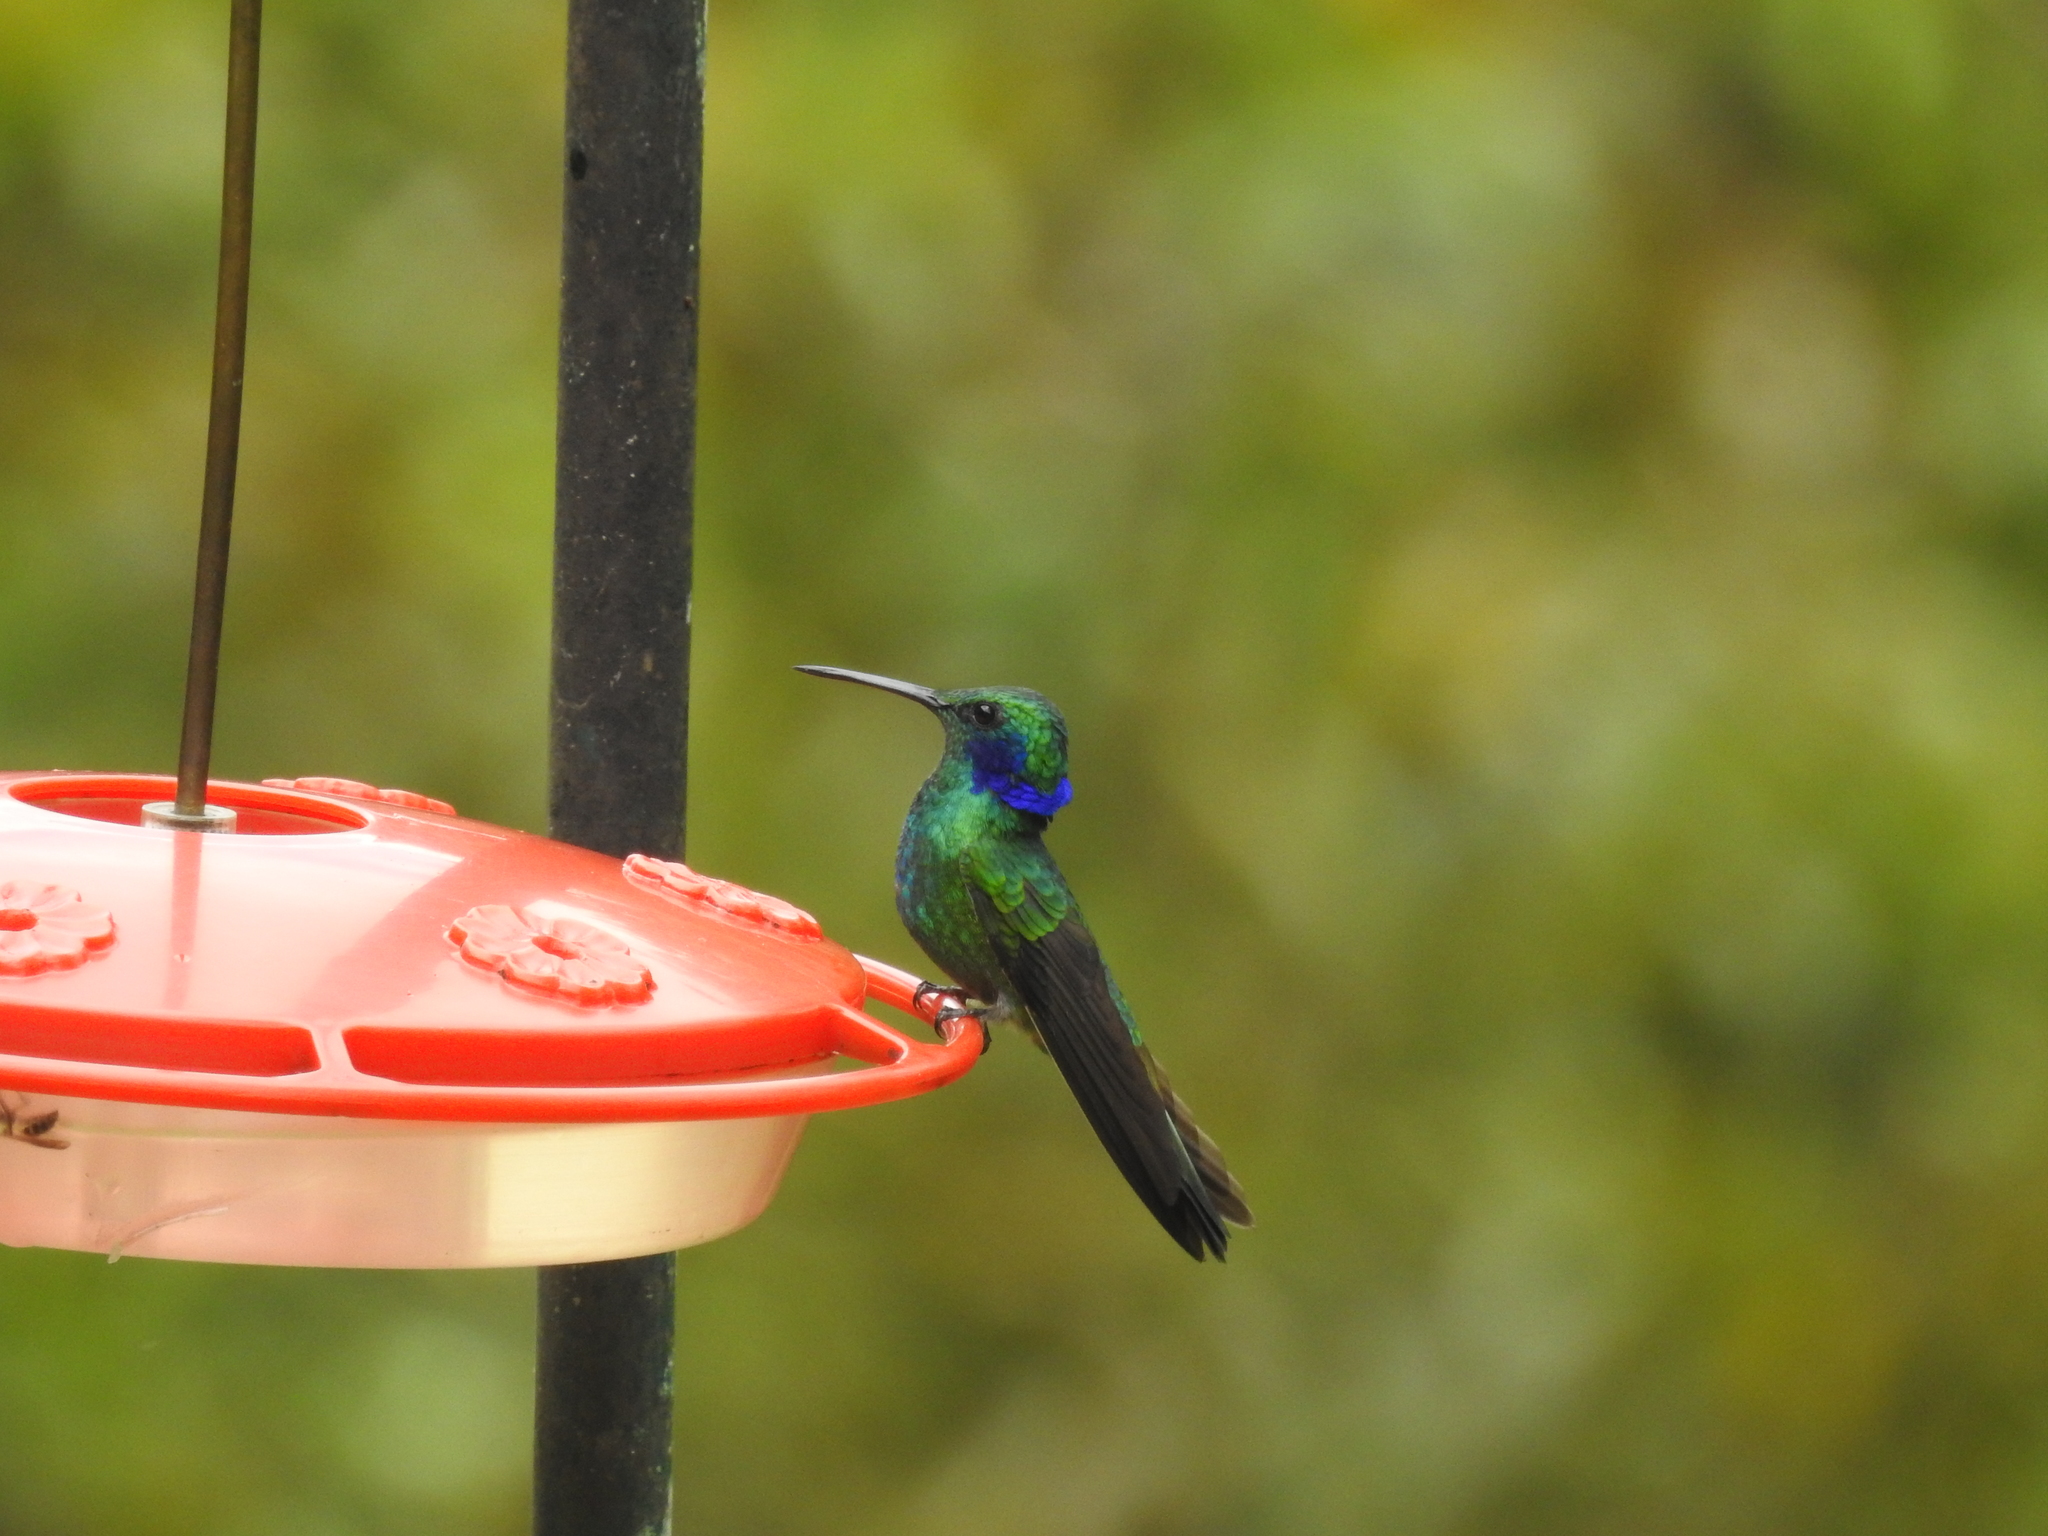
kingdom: Animalia
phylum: Chordata
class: Aves
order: Apodiformes
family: Trochilidae
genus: Colibri
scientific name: Colibri cyanotus
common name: Lesser violetear
